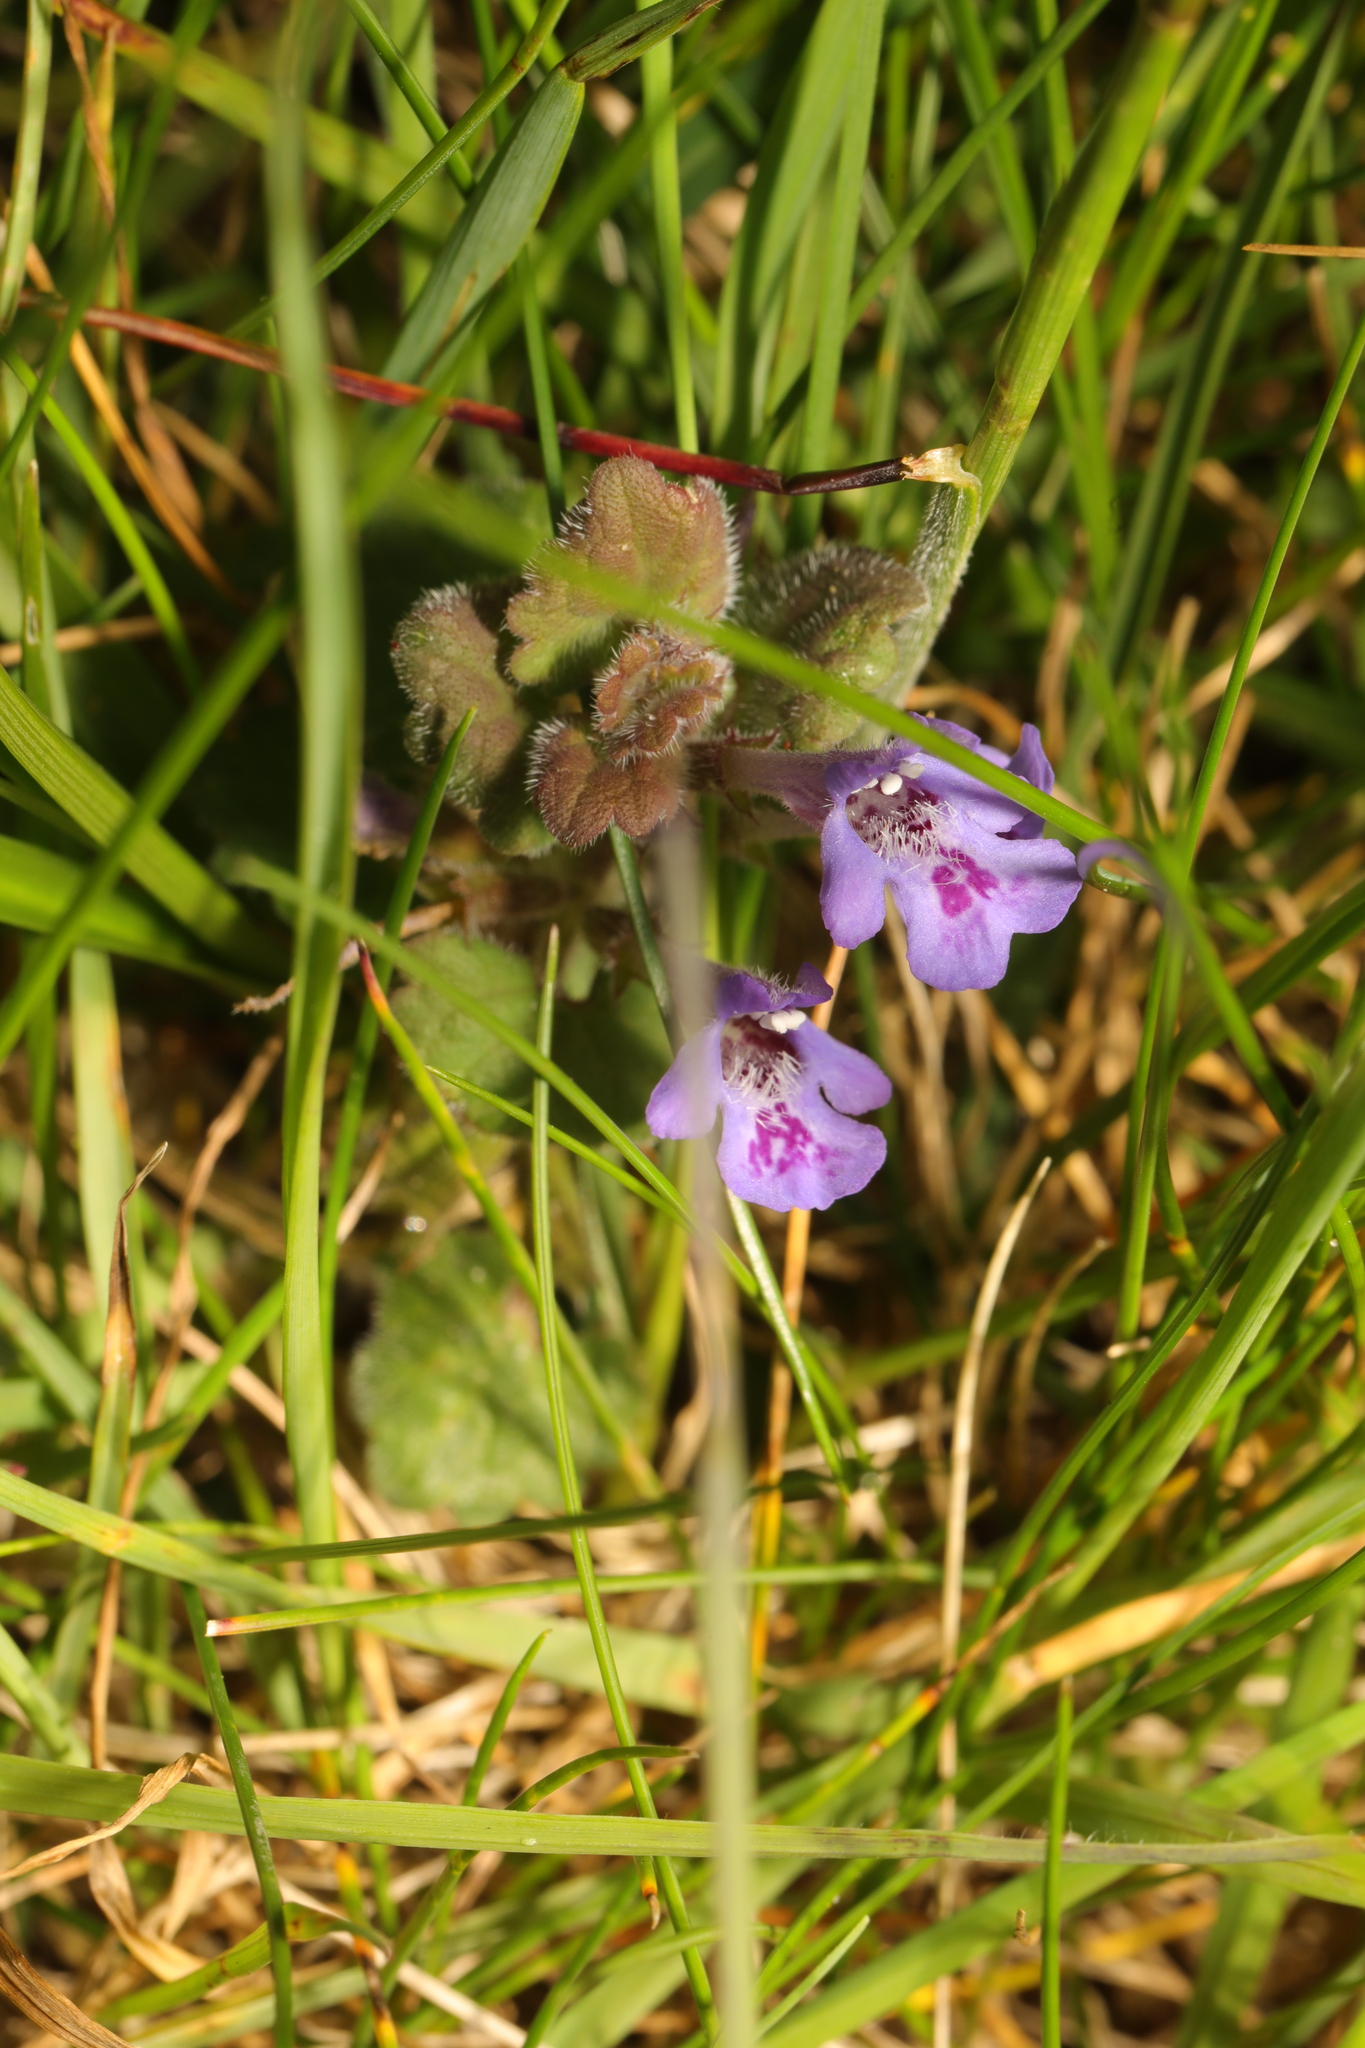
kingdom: Plantae
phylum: Tracheophyta
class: Magnoliopsida
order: Lamiales
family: Lamiaceae
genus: Glechoma
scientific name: Glechoma hederacea
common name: Ground ivy
